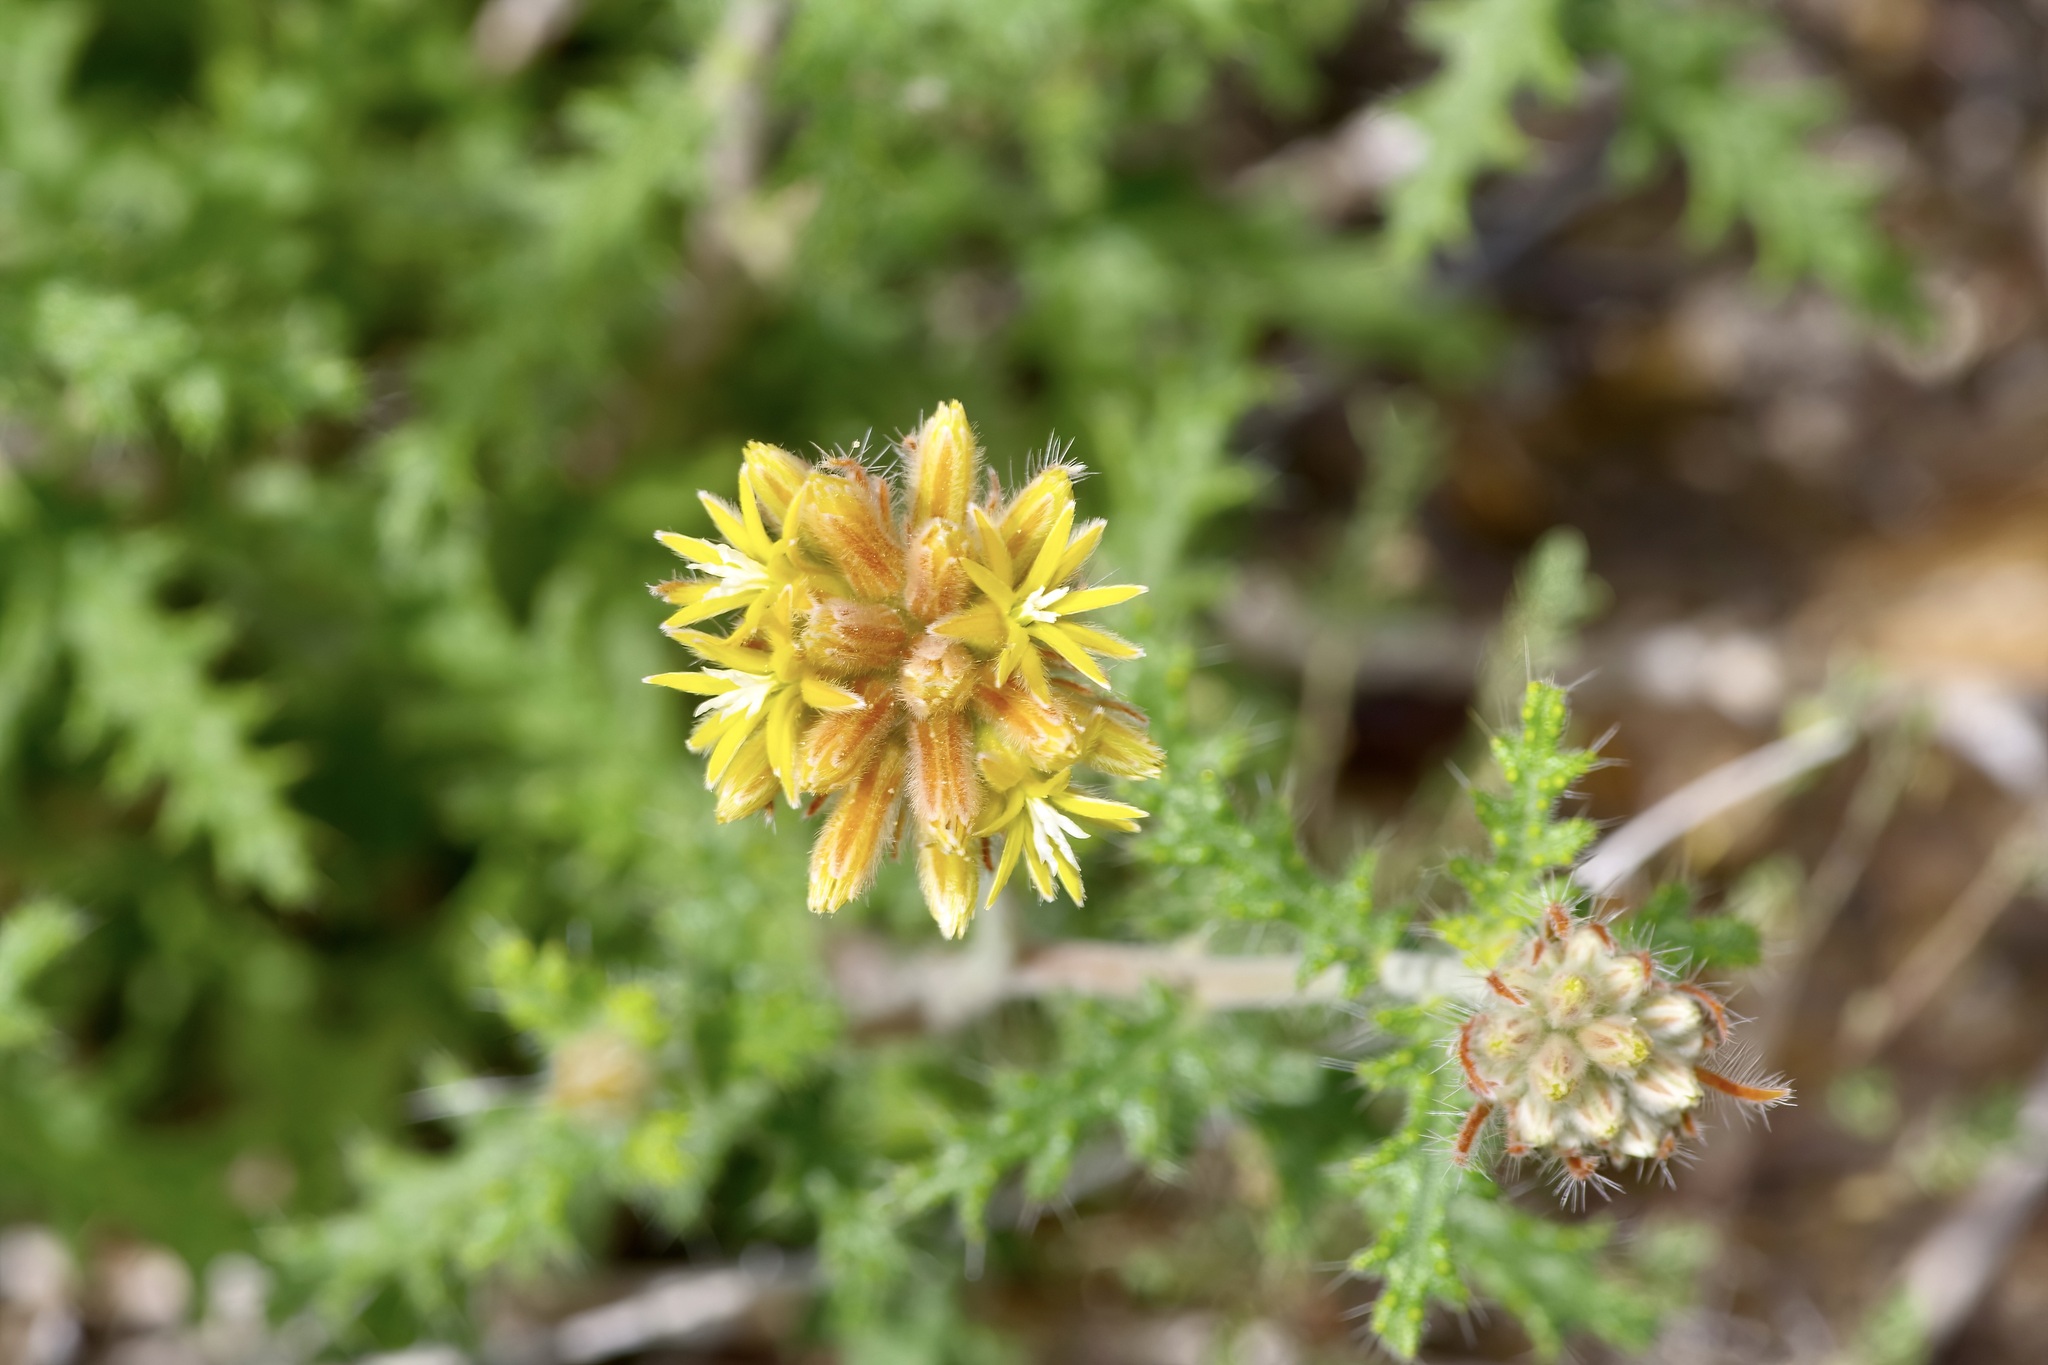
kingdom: Plantae
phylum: Tracheophyta
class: Magnoliopsida
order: Cornales
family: Loasaceae
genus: Cevallia
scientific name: Cevallia sinuata
